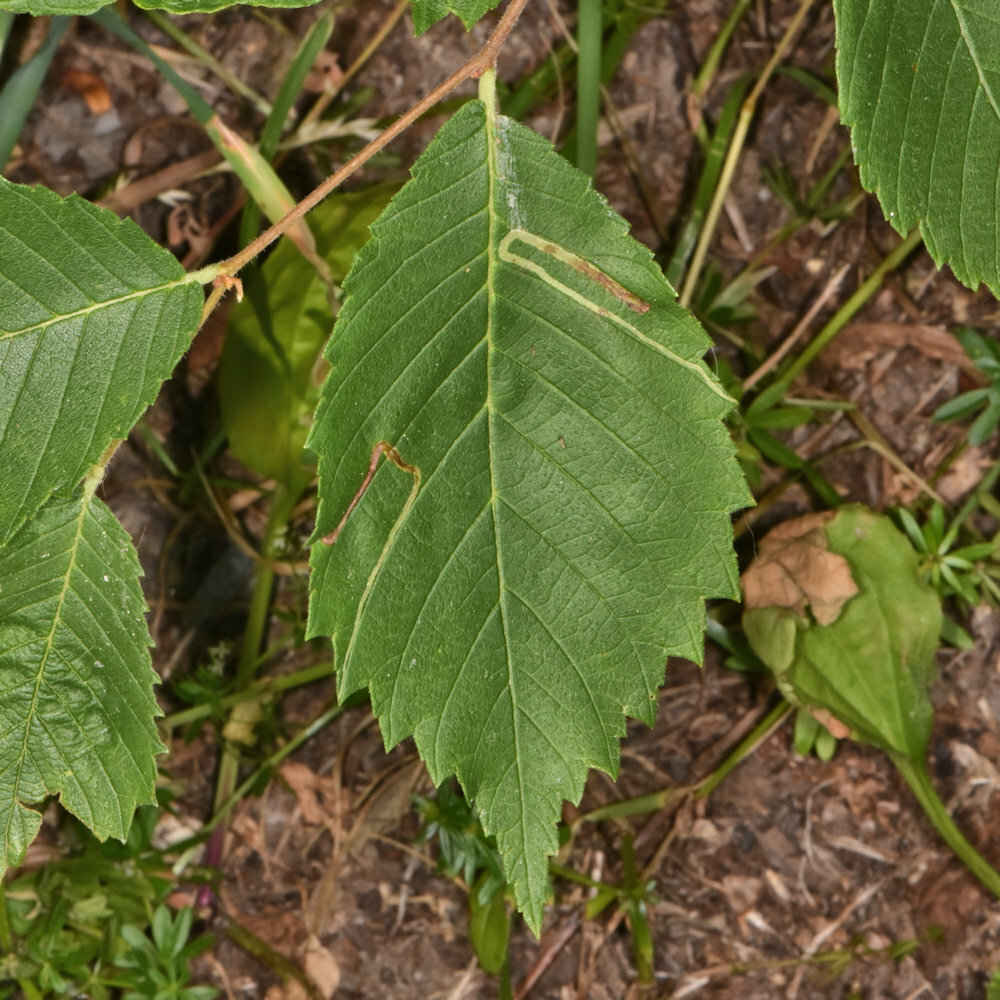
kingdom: Animalia
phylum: Arthropoda
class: Insecta
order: Diptera
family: Agromyzidae
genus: Agromyza
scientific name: Agromyza aristata
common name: Elm agromyzid leafminer
